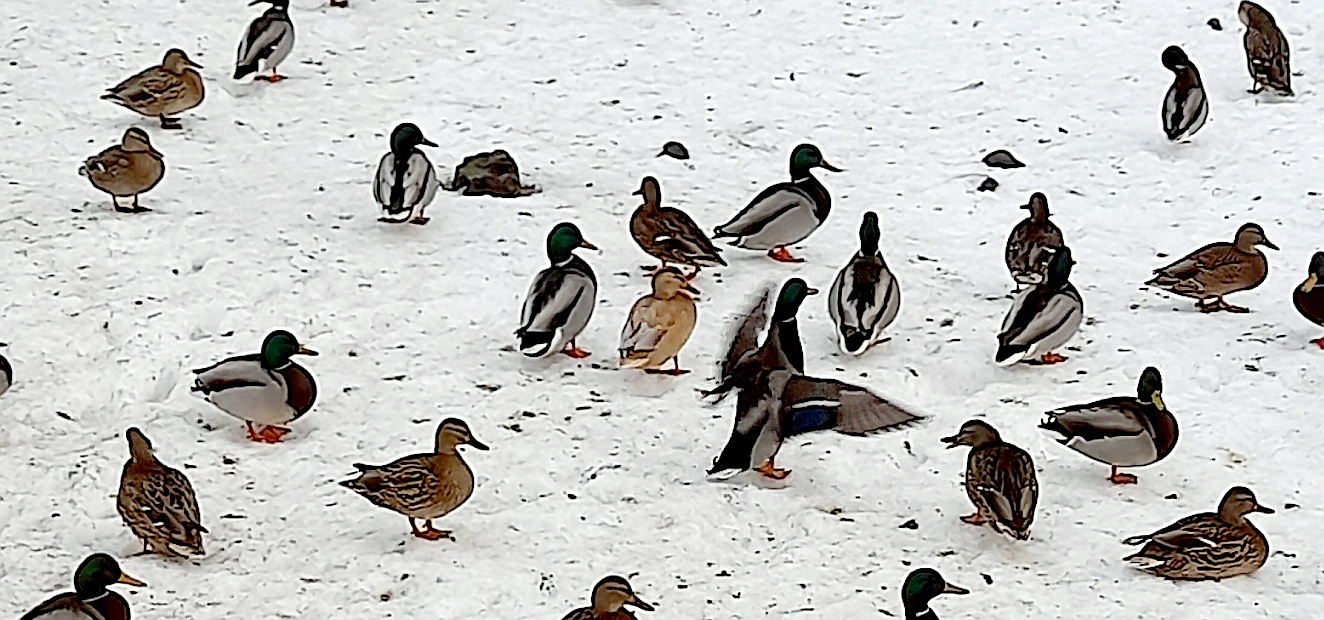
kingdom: Animalia
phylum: Chordata
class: Aves
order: Anseriformes
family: Anatidae
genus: Anas
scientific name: Anas platyrhynchos
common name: Mallard
